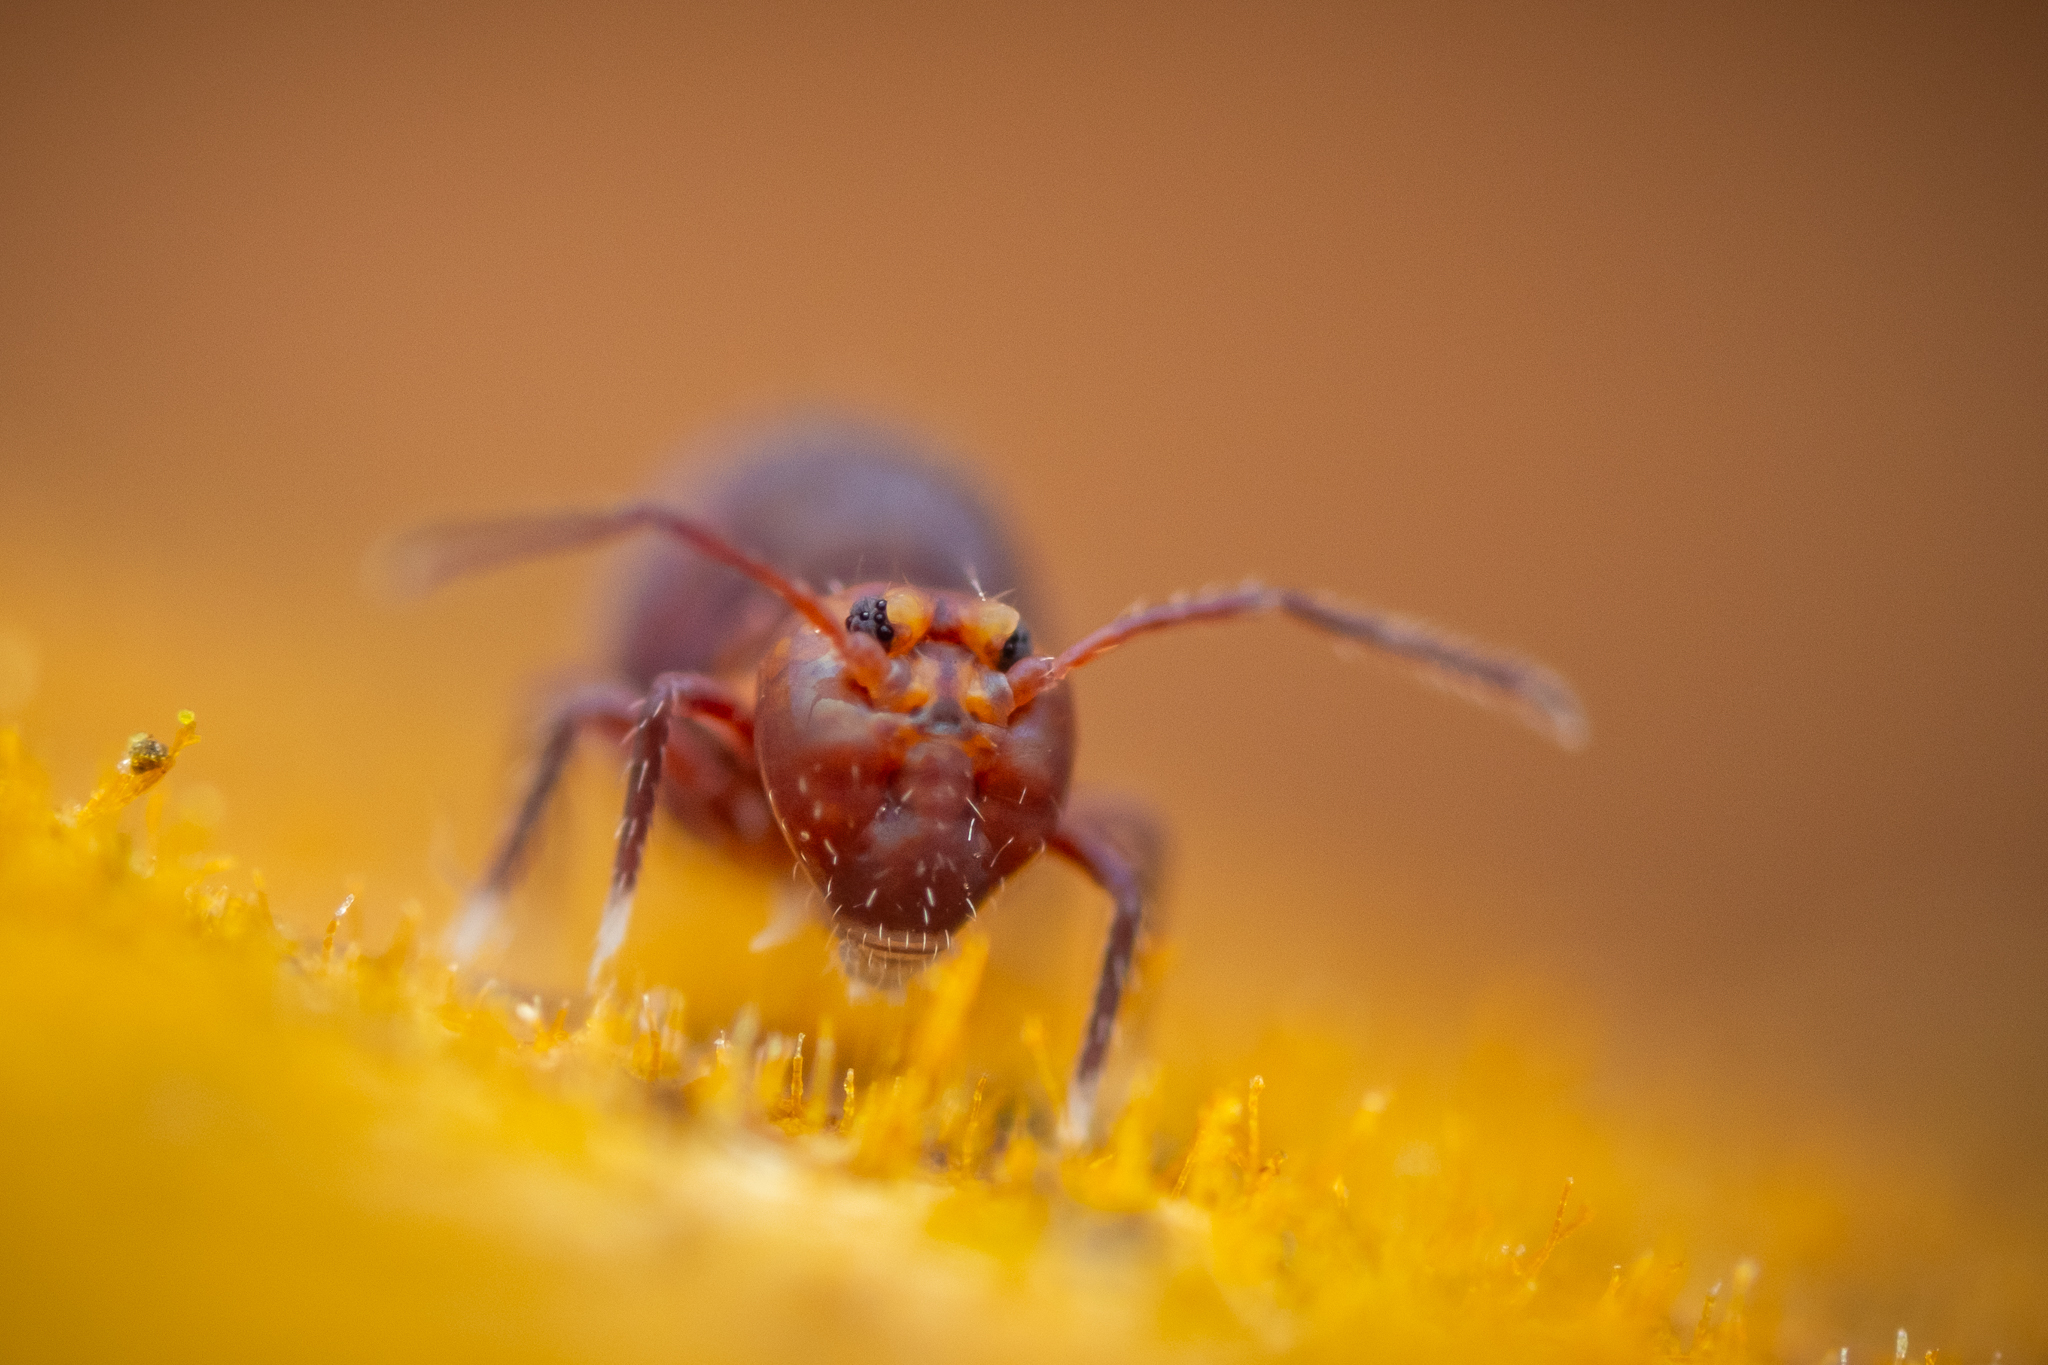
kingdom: Animalia
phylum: Arthropoda
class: Collembola
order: Symphypleona
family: Dicyrtomidae
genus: Dicyrtoma
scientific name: Dicyrtoma fusca
